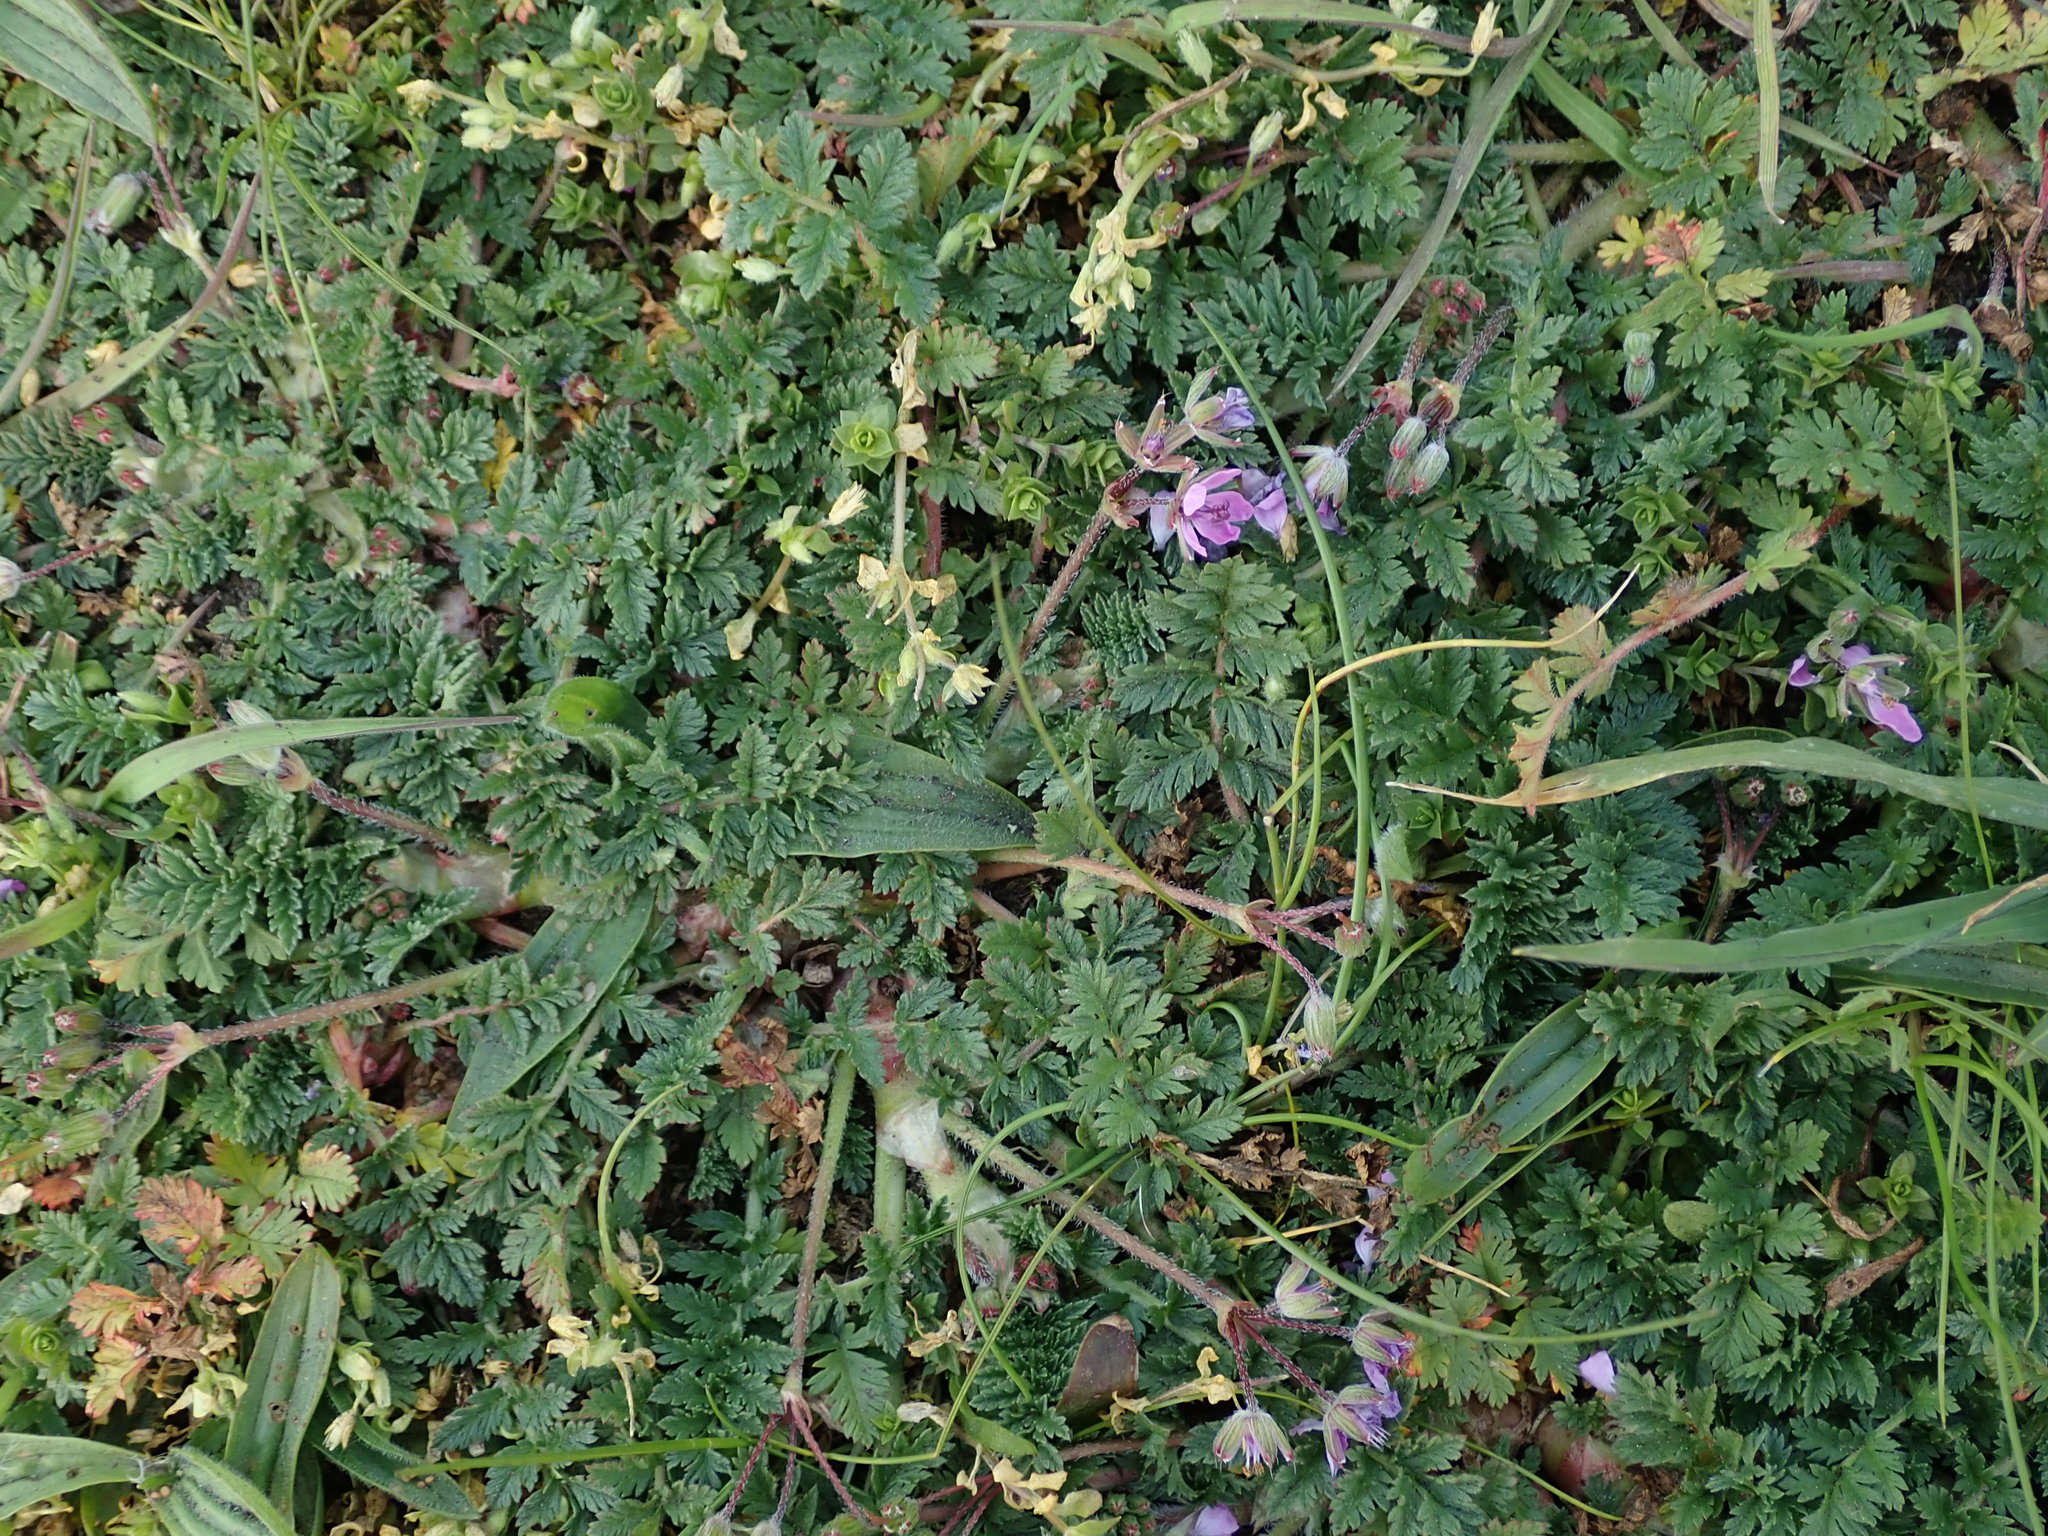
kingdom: Plantae
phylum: Tracheophyta
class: Magnoliopsida
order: Geraniales
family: Geraniaceae
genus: Erodium
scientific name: Erodium cicutarium
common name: Common stork's-bill
